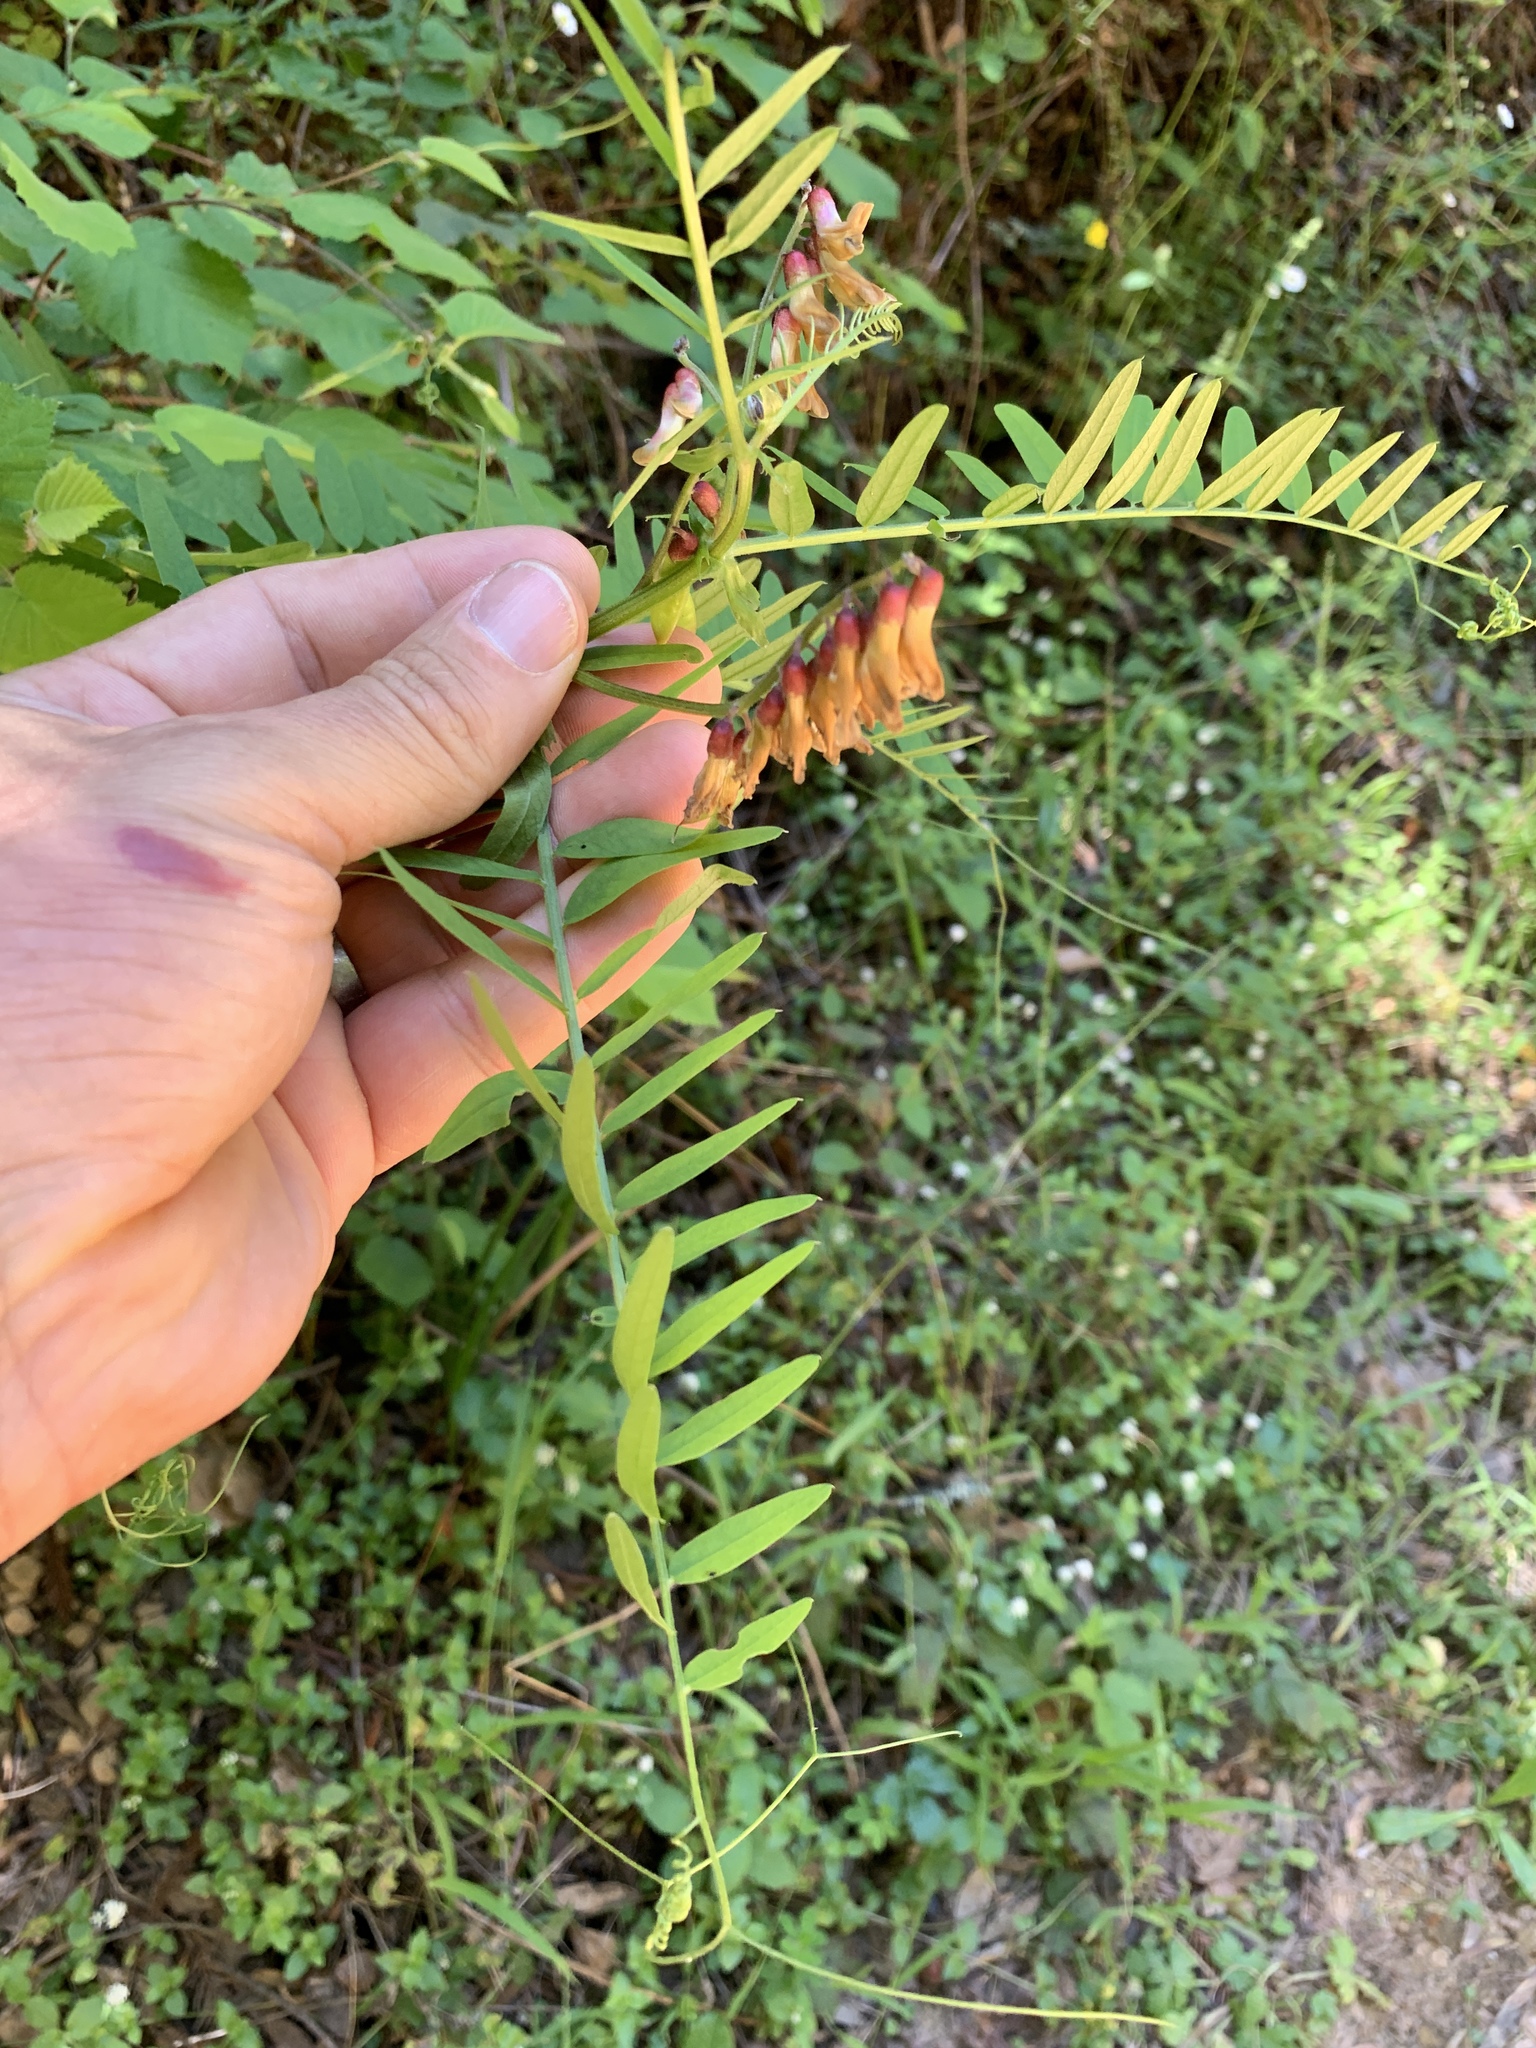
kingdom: Plantae
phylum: Tracheophyta
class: Magnoliopsida
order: Fabales
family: Fabaceae
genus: Vicia
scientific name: Vicia
